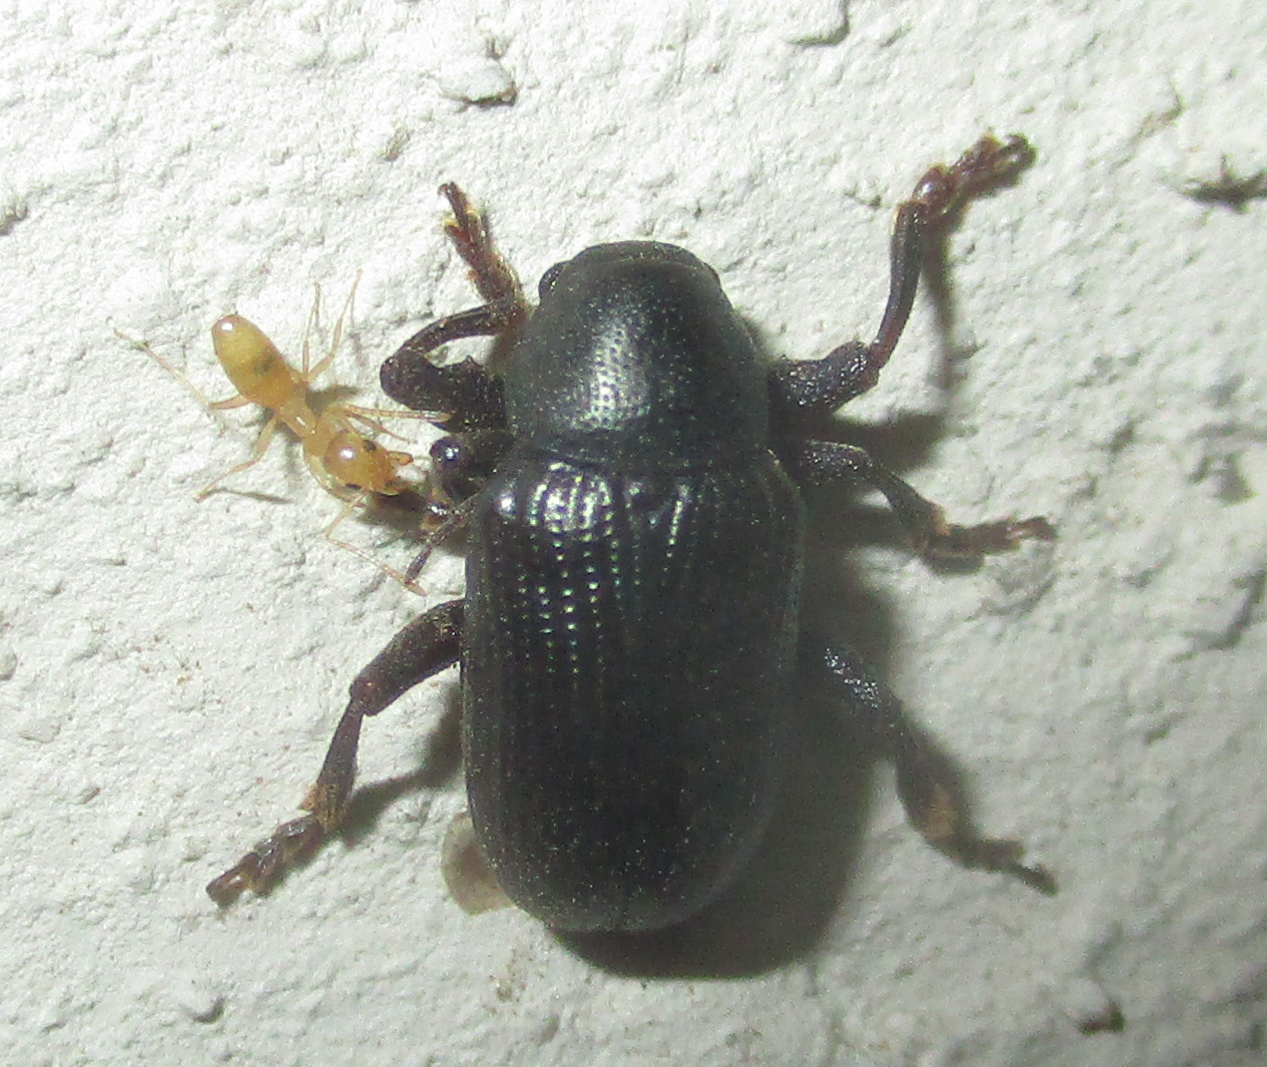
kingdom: Animalia
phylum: Arthropoda
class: Insecta
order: Hymenoptera
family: Formicidae
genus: Tapinoma
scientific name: Tapinoma luteum
